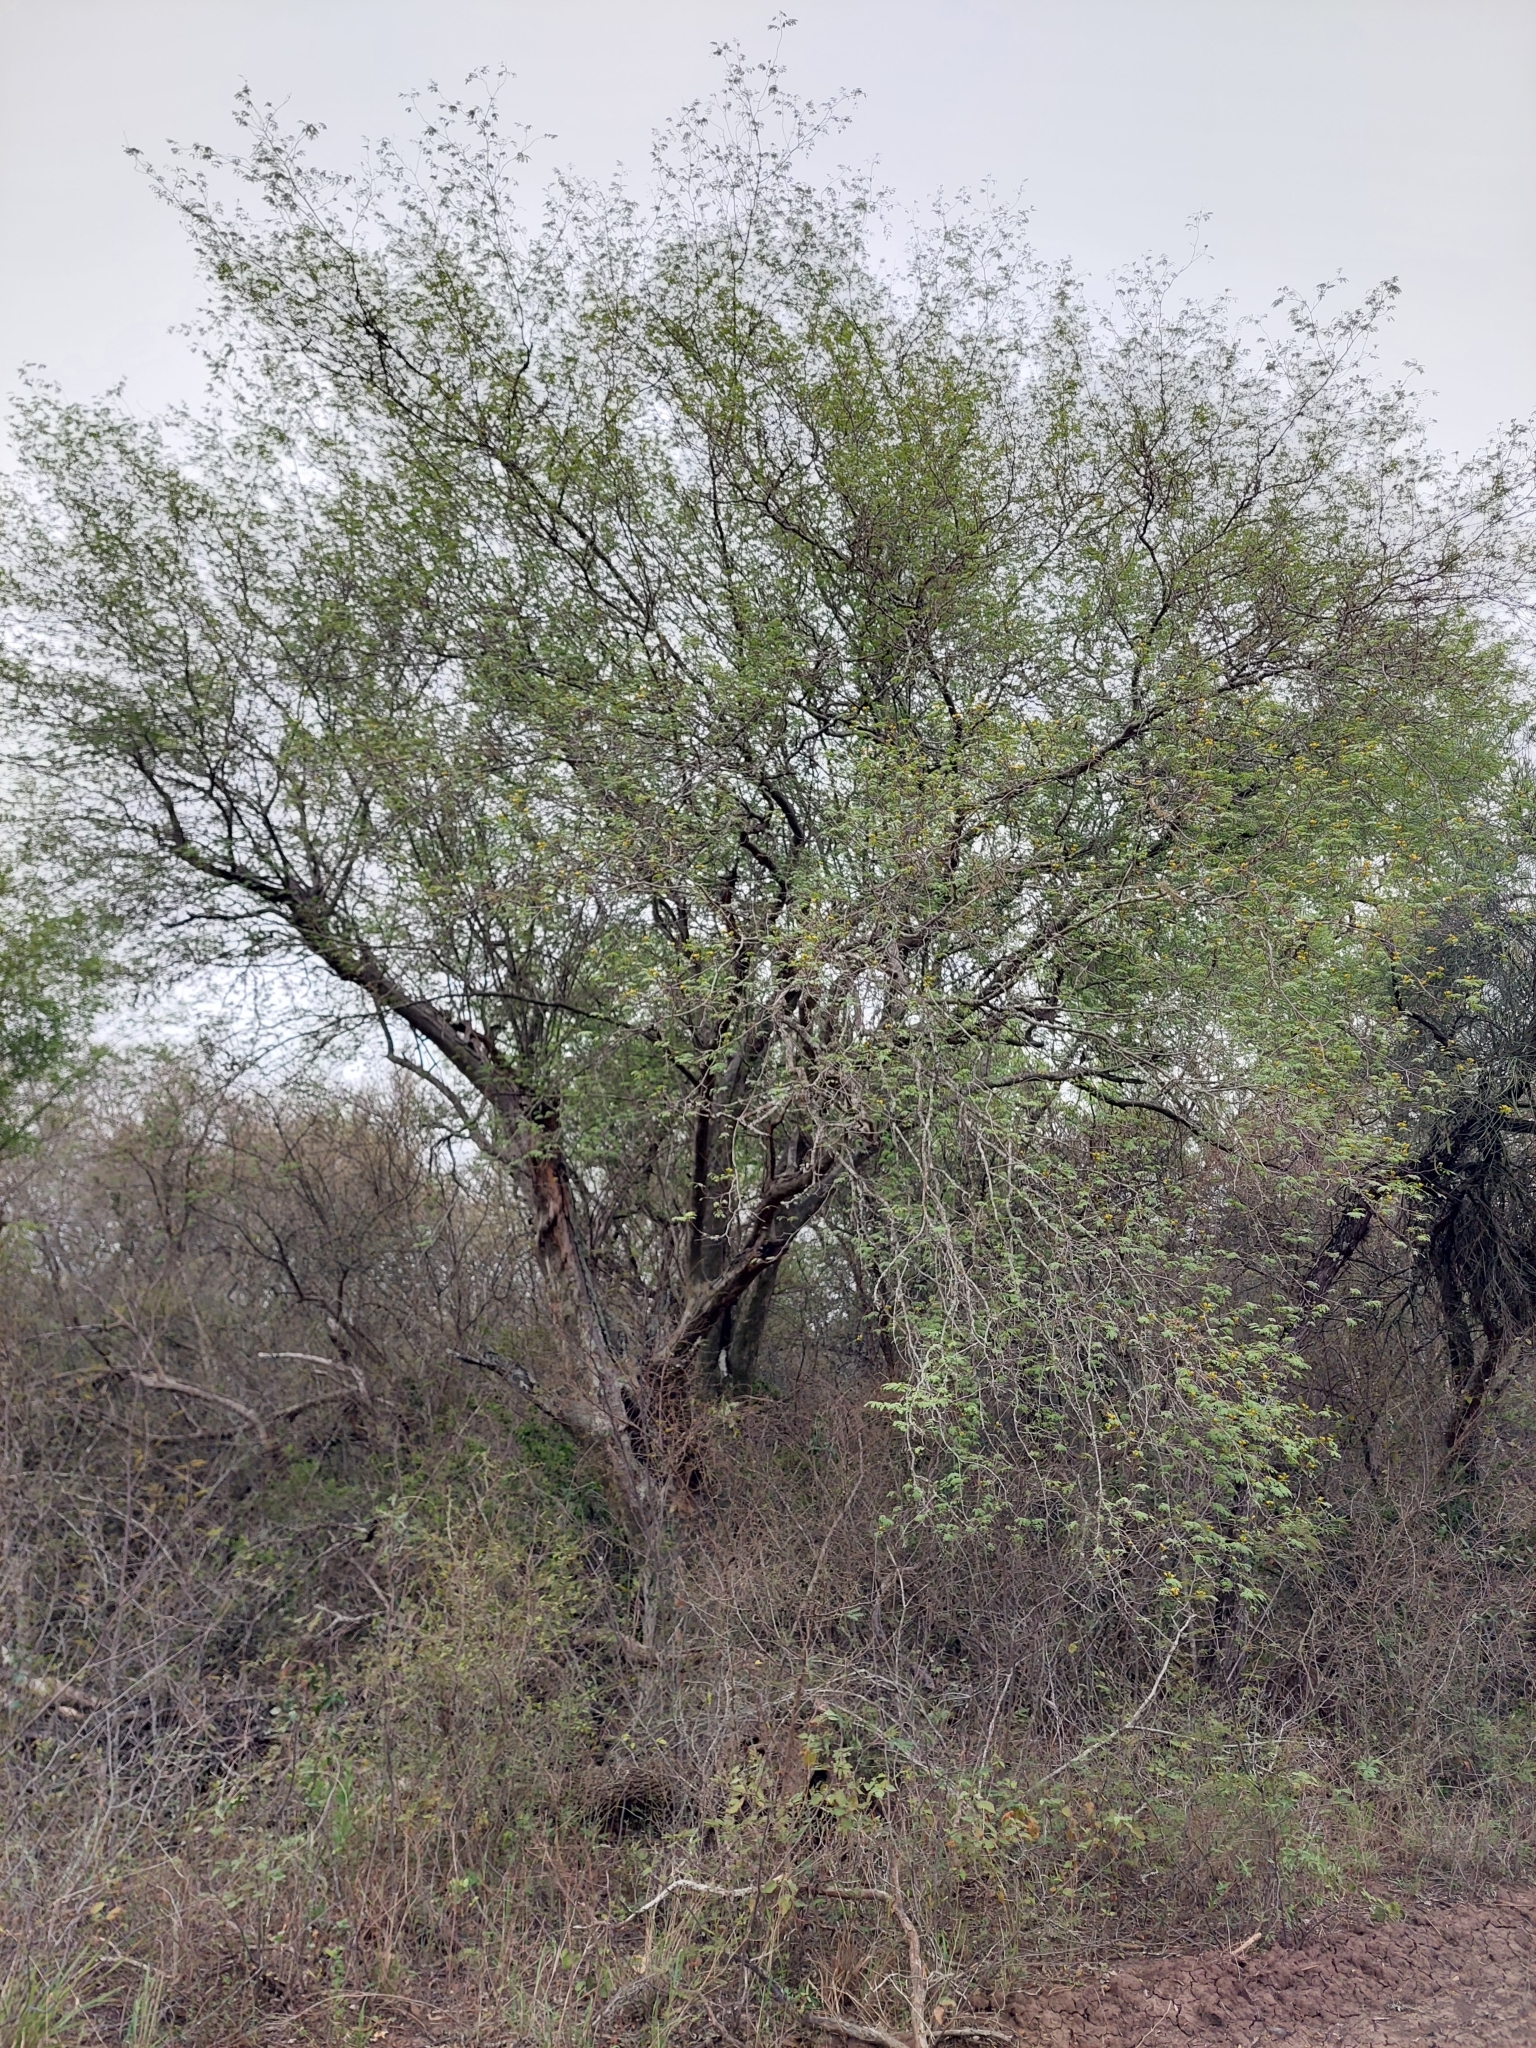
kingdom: Plantae
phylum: Tracheophyta
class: Magnoliopsida
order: Fabales
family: Fabaceae
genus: Libidibia
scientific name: Libidibia paraguariensis
